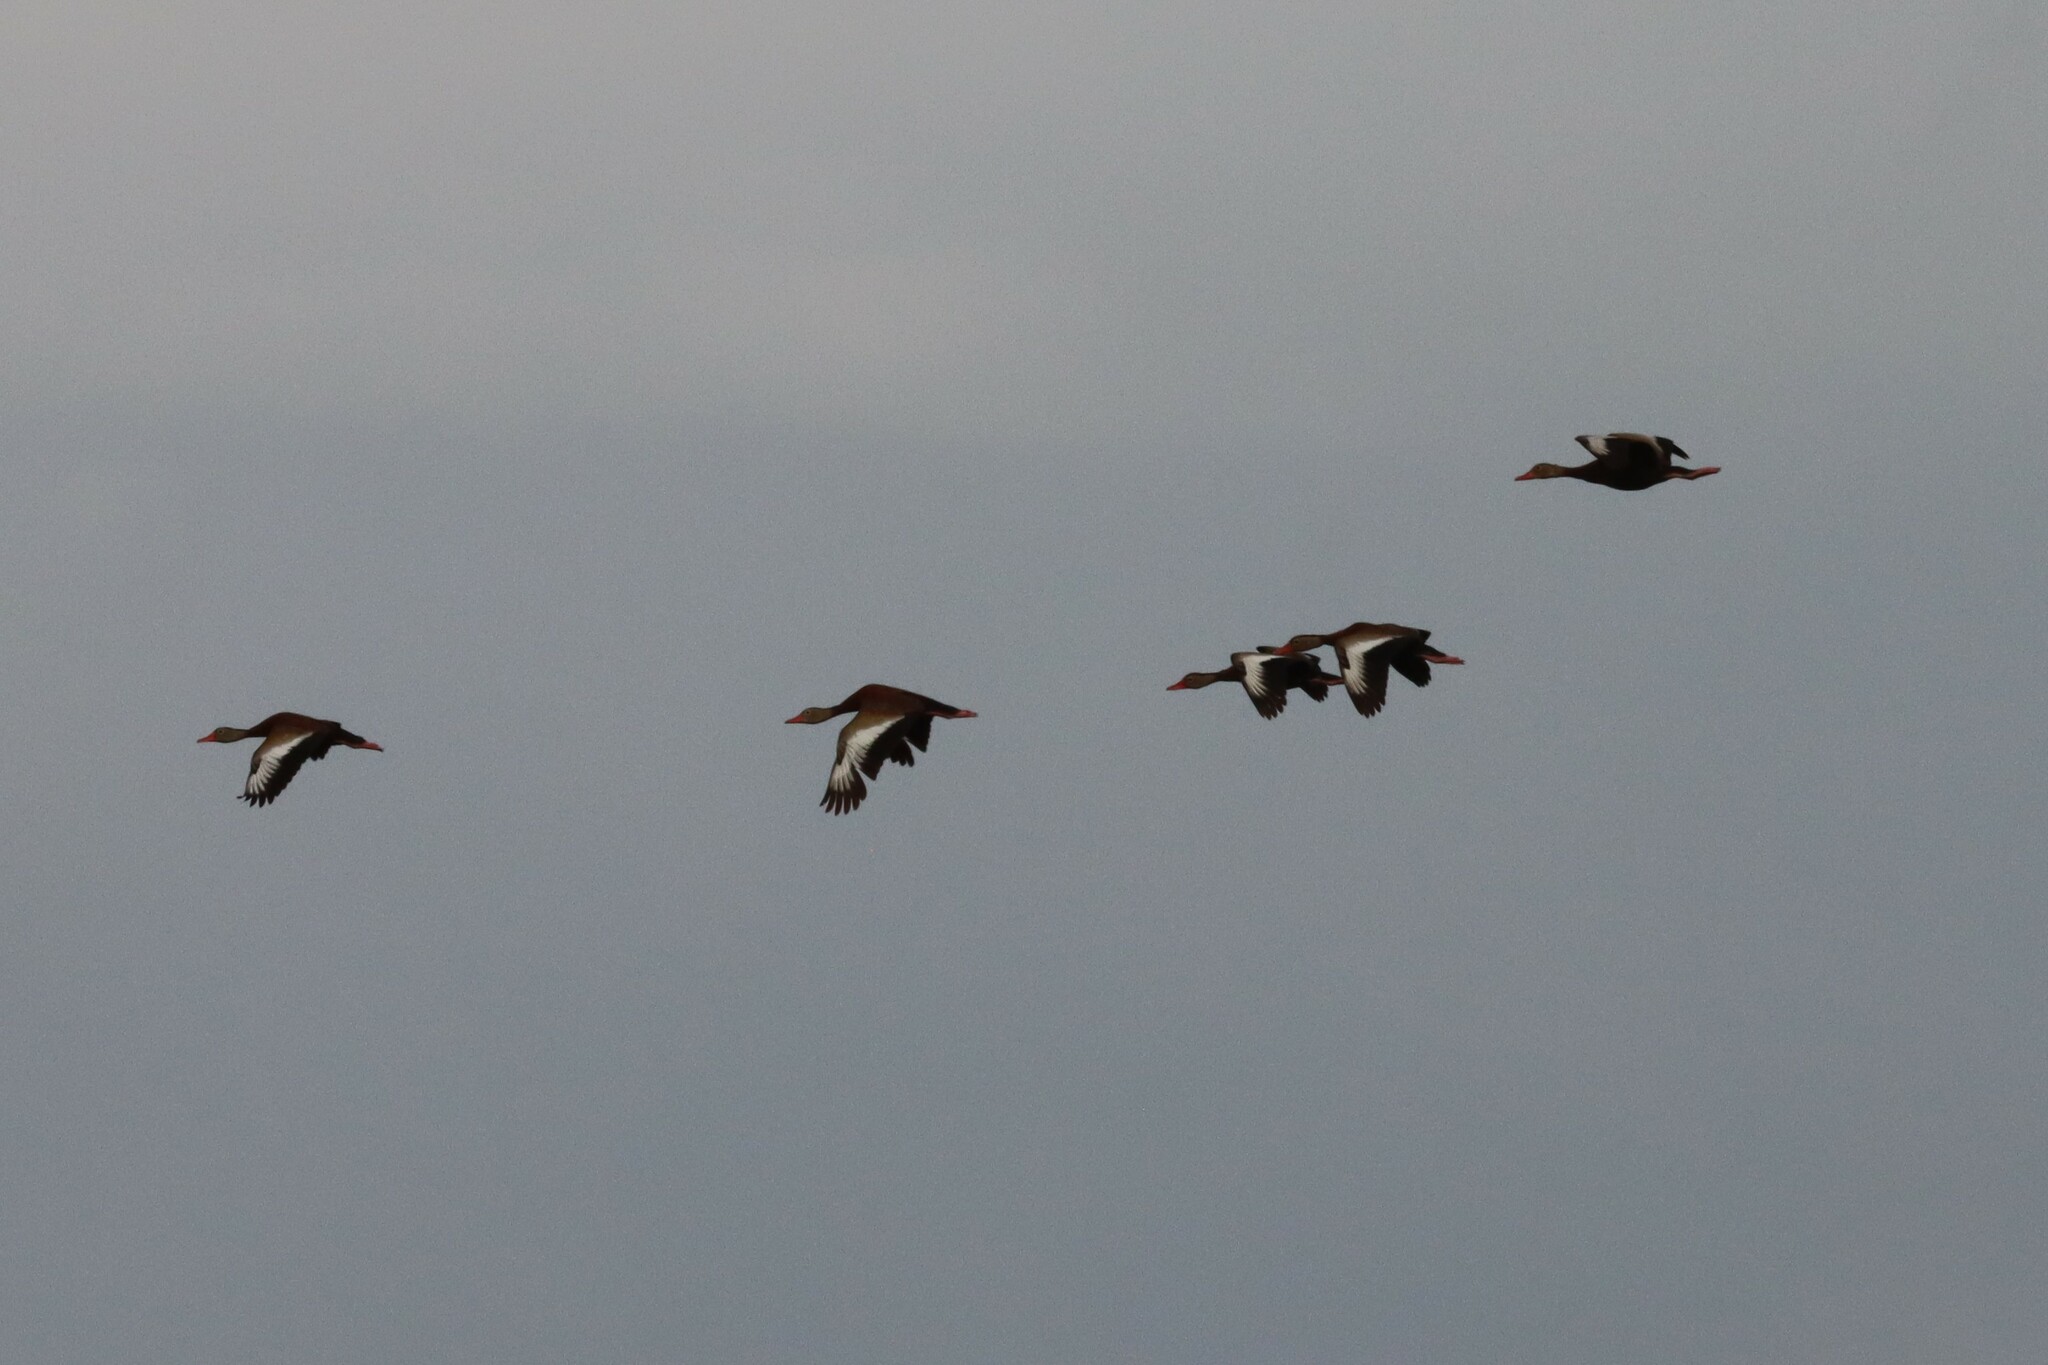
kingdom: Animalia
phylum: Chordata
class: Aves
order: Anseriformes
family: Anatidae
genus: Dendrocygna
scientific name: Dendrocygna autumnalis
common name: Black-bellied whistling duck
